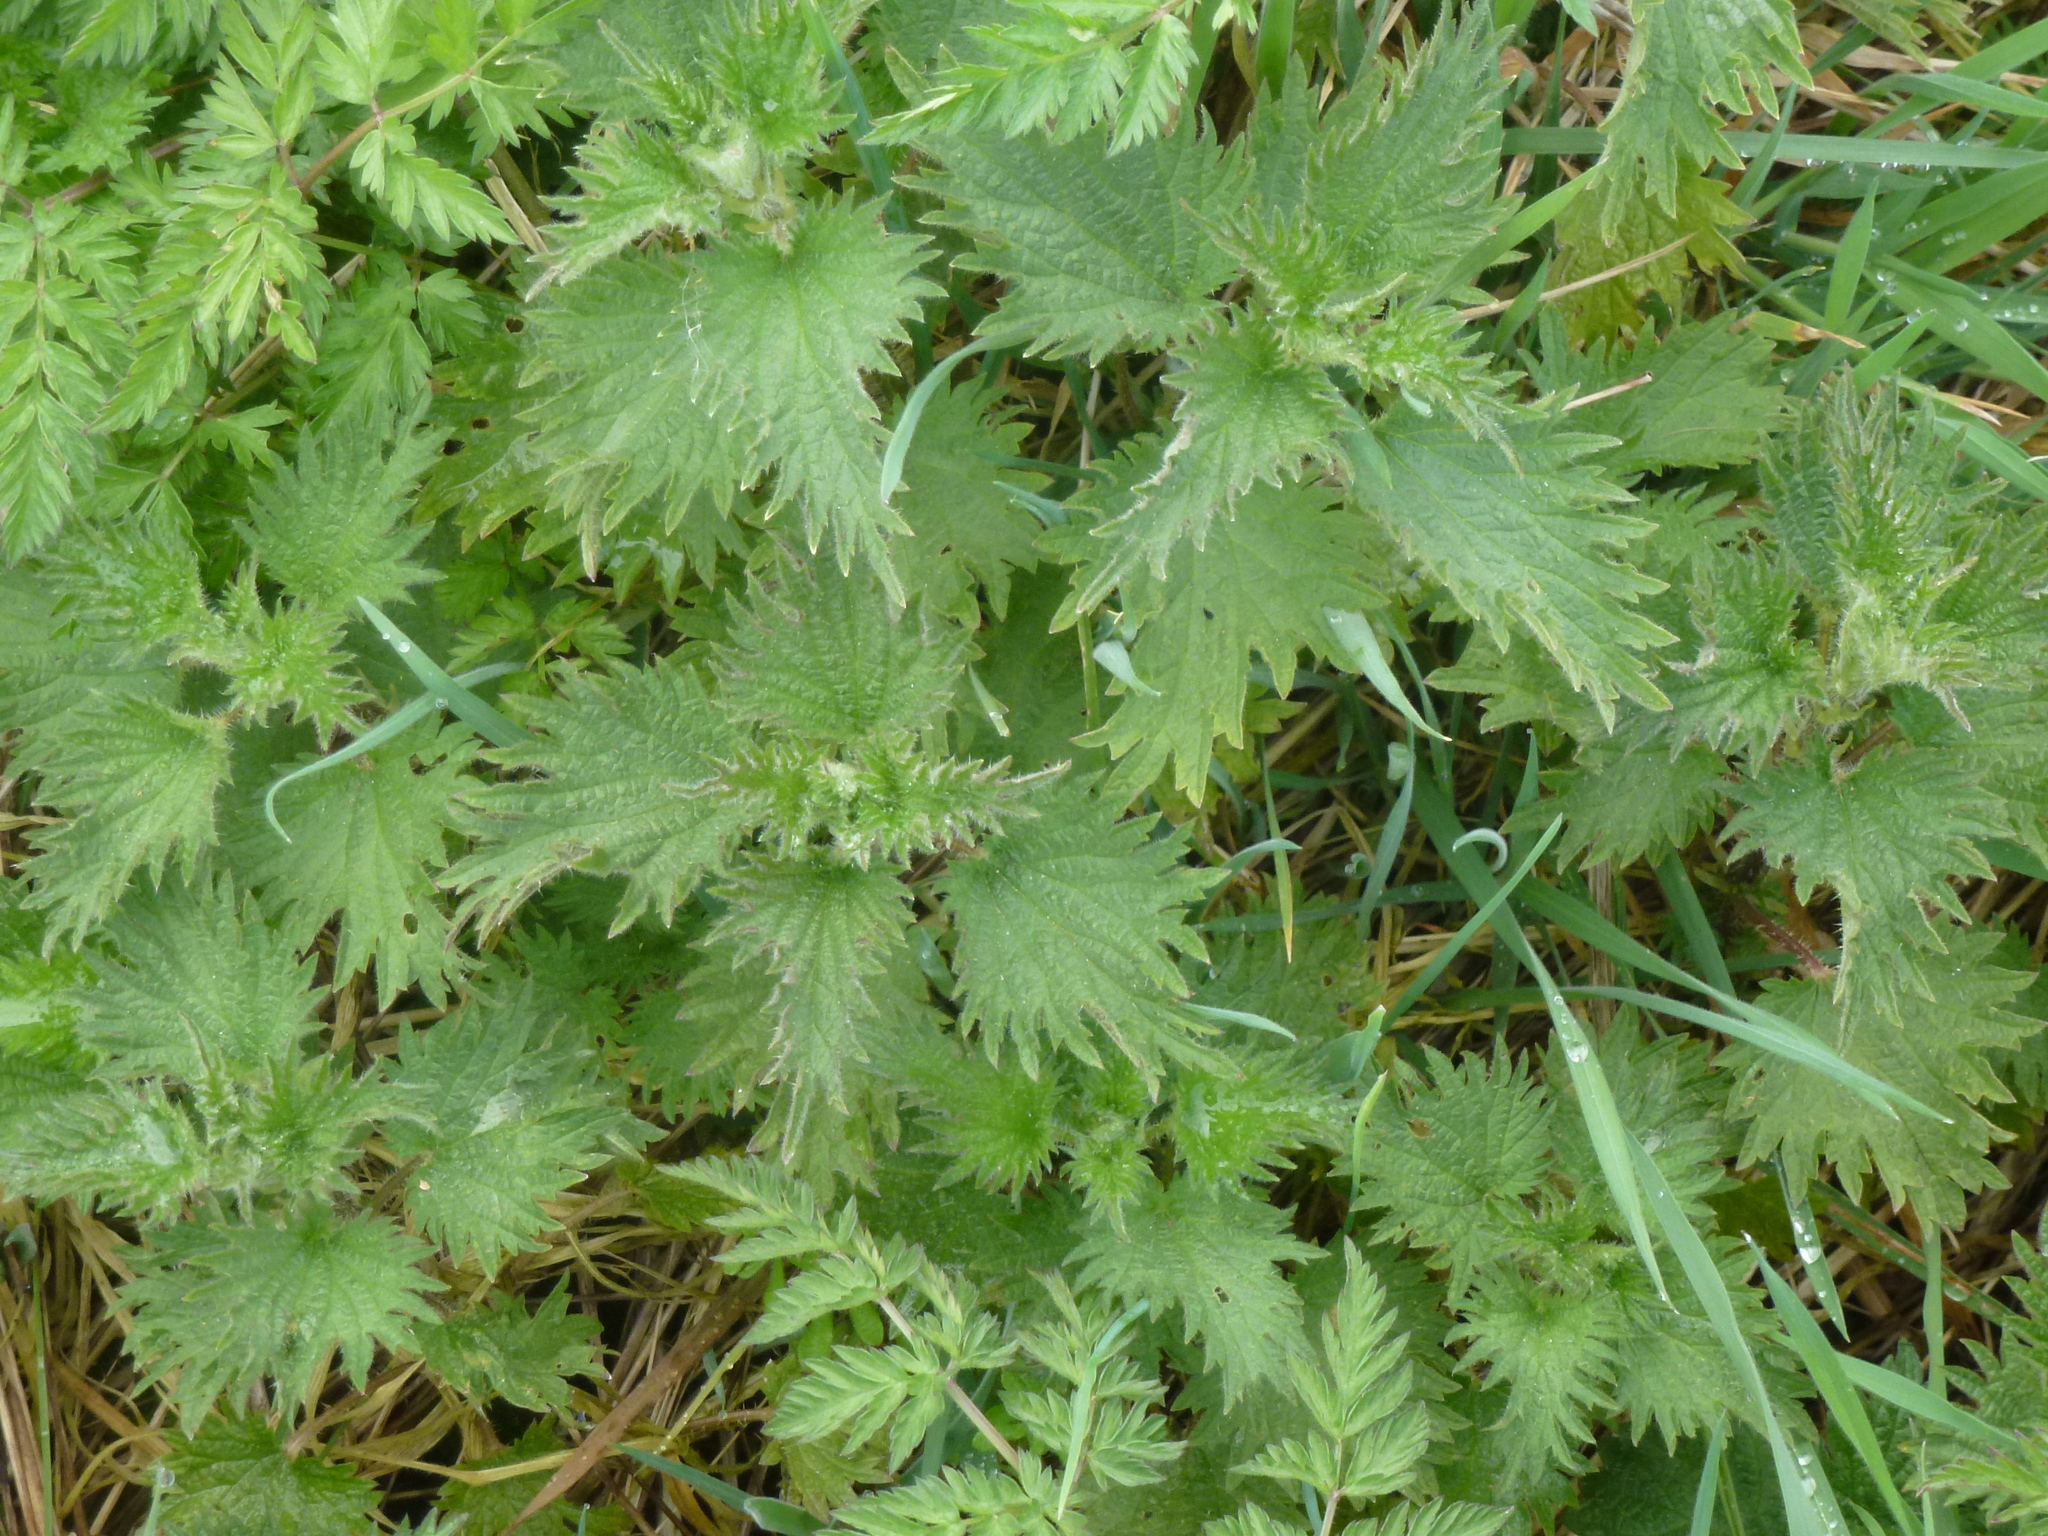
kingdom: Plantae
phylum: Tracheophyta
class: Magnoliopsida
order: Rosales
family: Urticaceae
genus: Urtica
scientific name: Urtica dioica
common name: Common nettle
